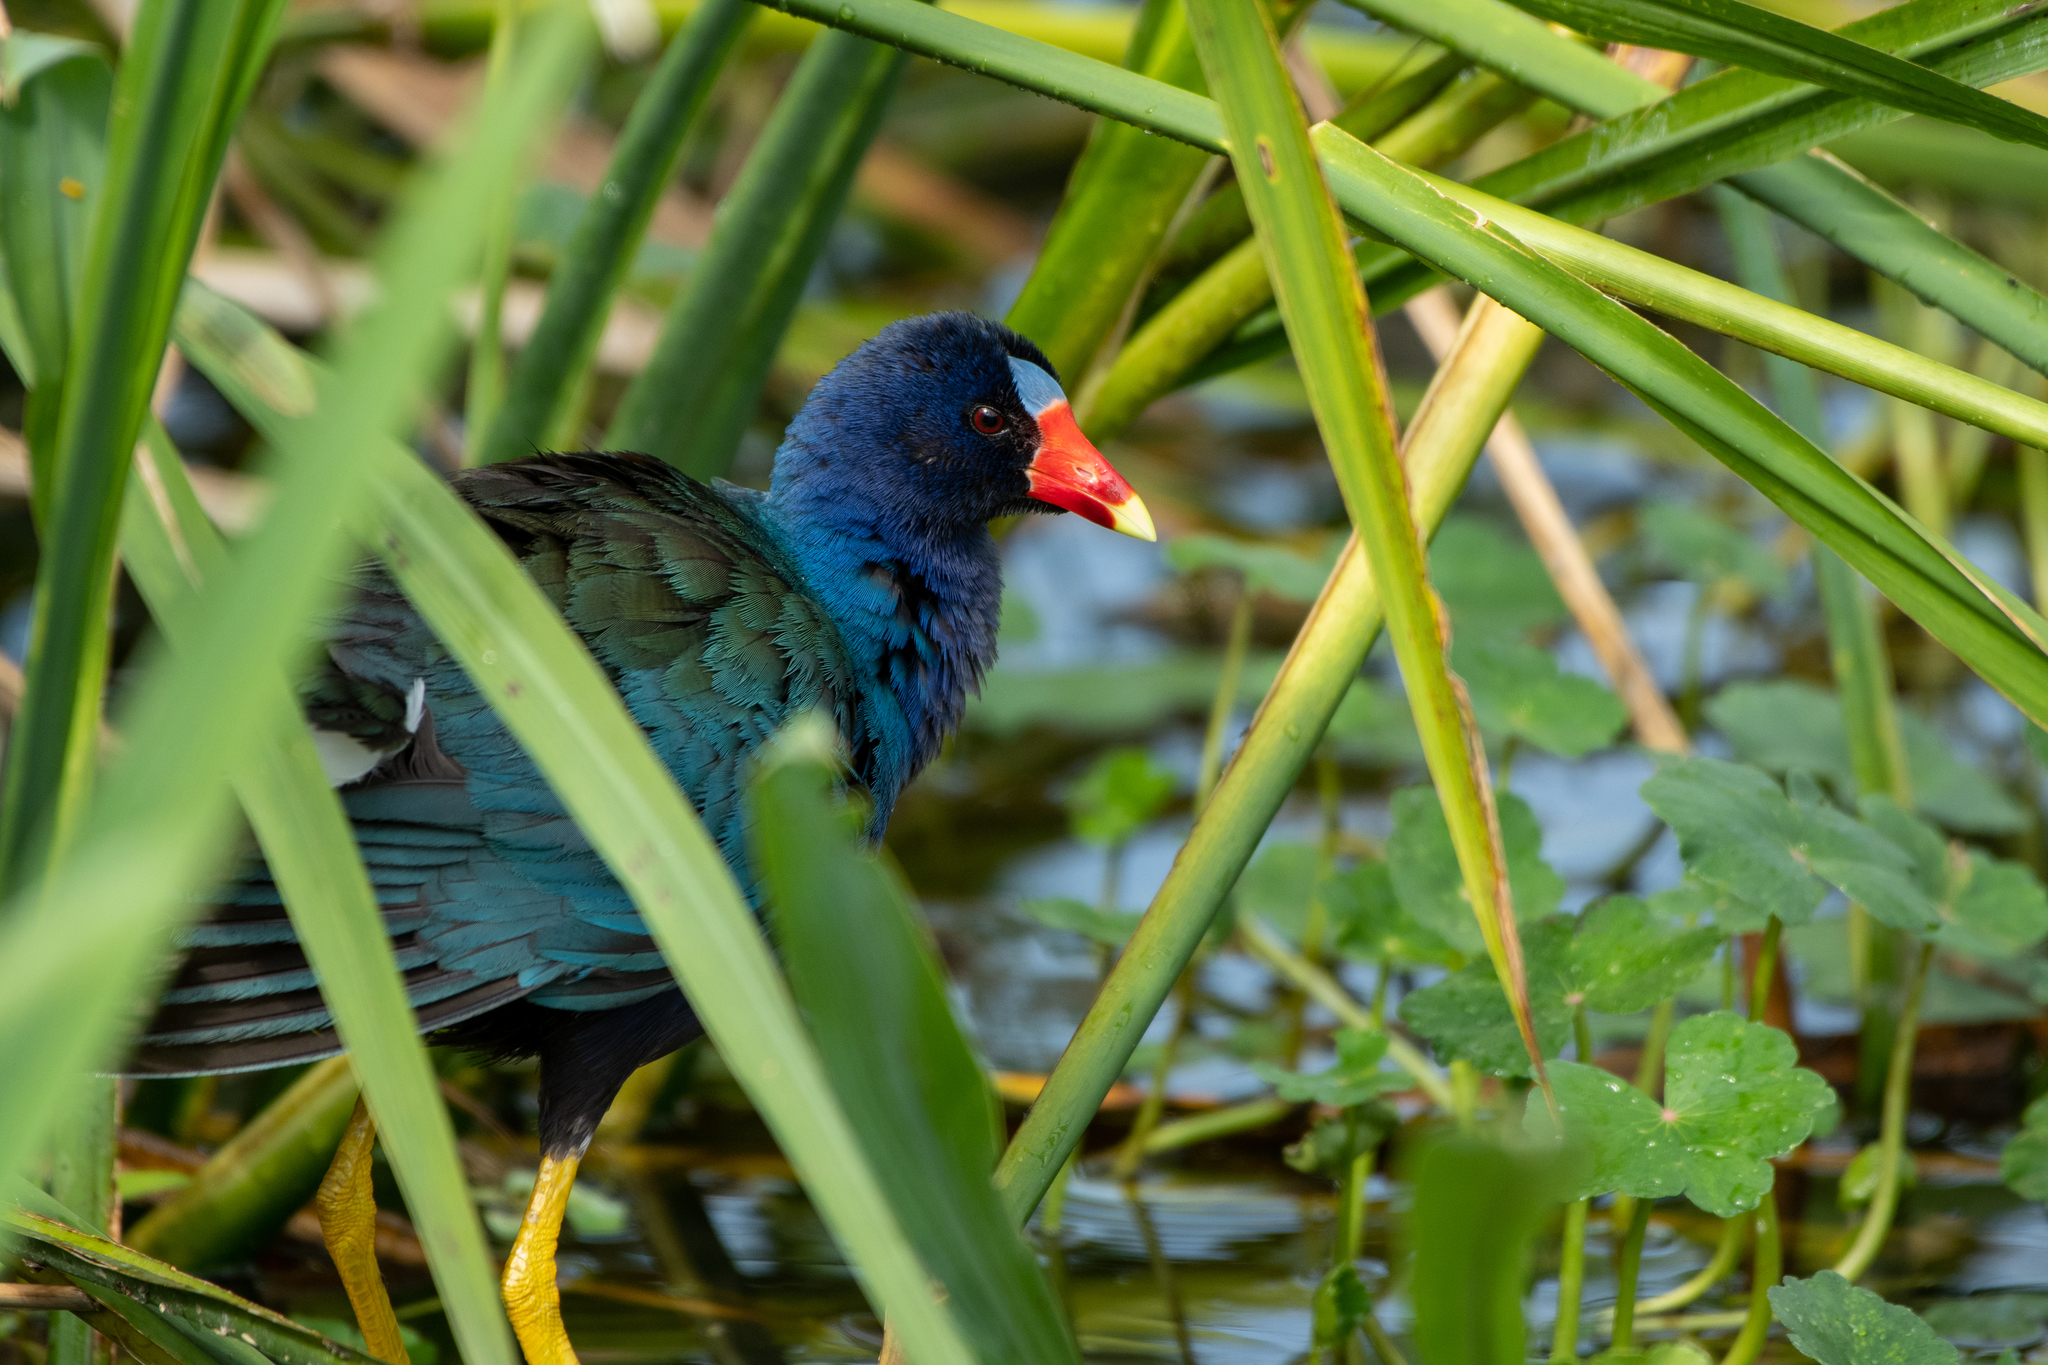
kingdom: Animalia
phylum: Chordata
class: Aves
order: Gruiformes
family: Rallidae
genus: Porphyrio
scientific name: Porphyrio martinica
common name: Purple gallinule
